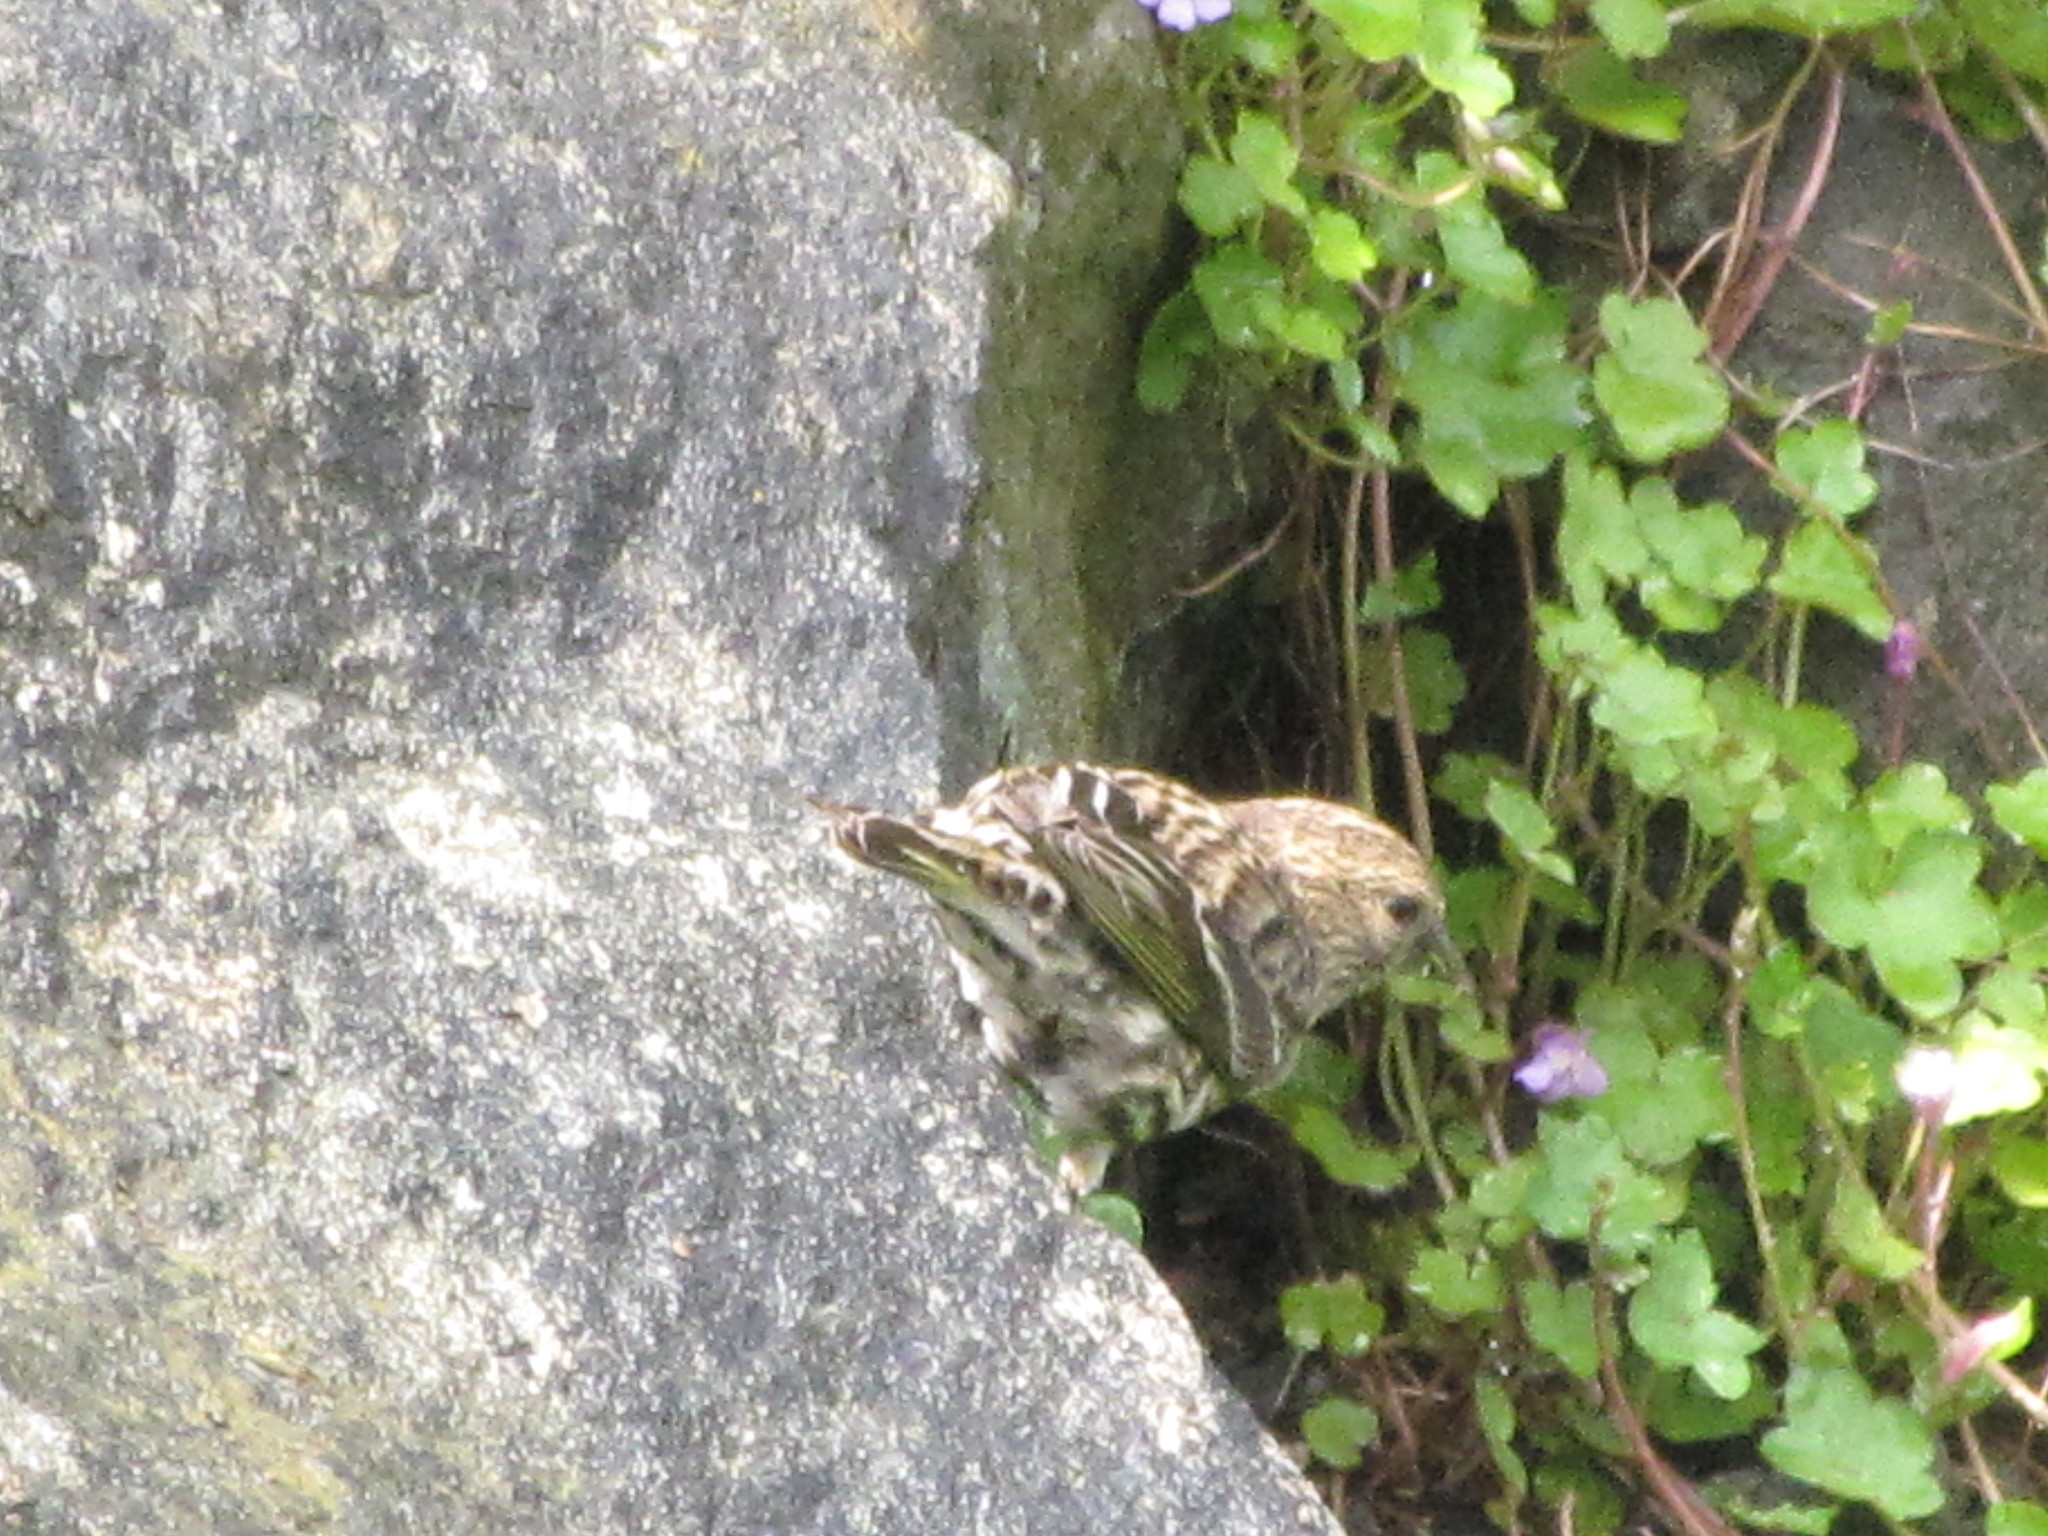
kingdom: Animalia
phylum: Chordata
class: Aves
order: Passeriformes
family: Fringillidae
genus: Spinus
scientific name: Spinus pinus
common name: Pine siskin
